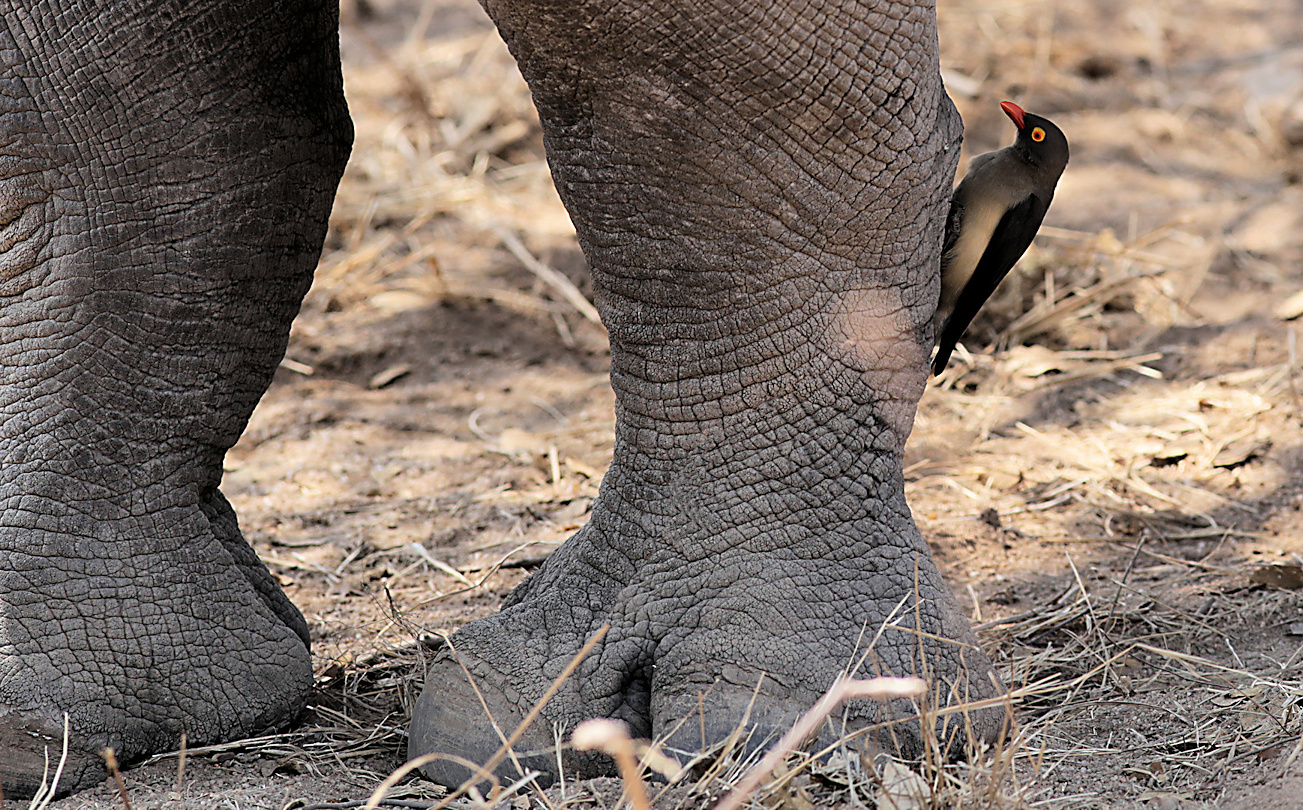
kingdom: Animalia
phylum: Chordata
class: Mammalia
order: Perissodactyla
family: Rhinocerotidae
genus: Ceratotherium
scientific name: Ceratotherium simum
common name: White rhinoceros
